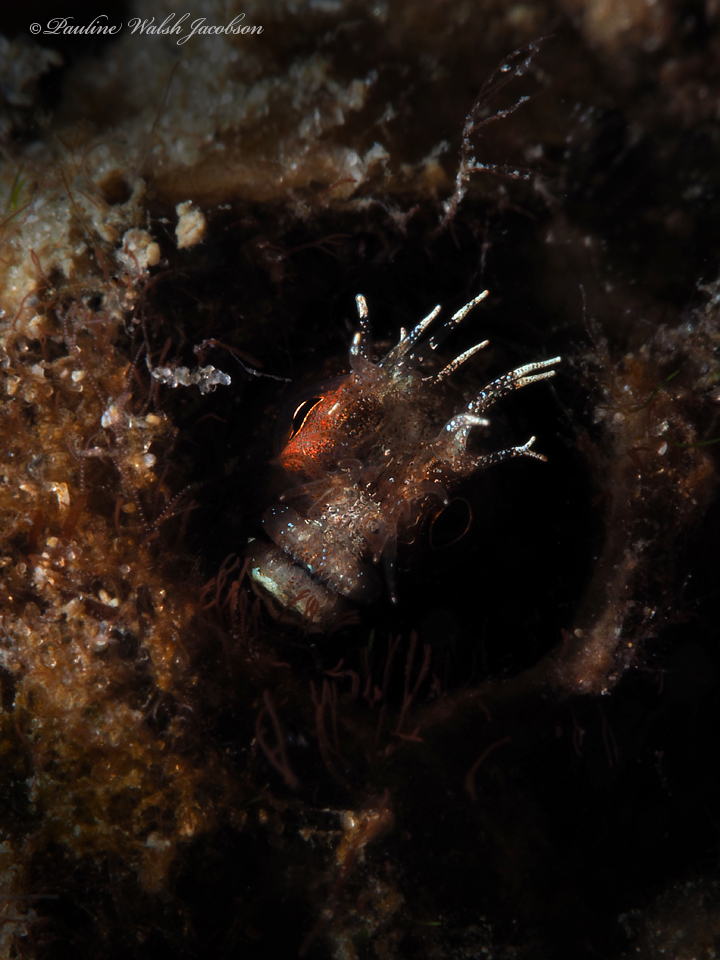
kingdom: Animalia
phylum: Chordata
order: Perciformes
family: Chaenopsidae
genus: Acanthemblemaria
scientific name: Acanthemblemaria aspera
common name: Roughhead blenny
